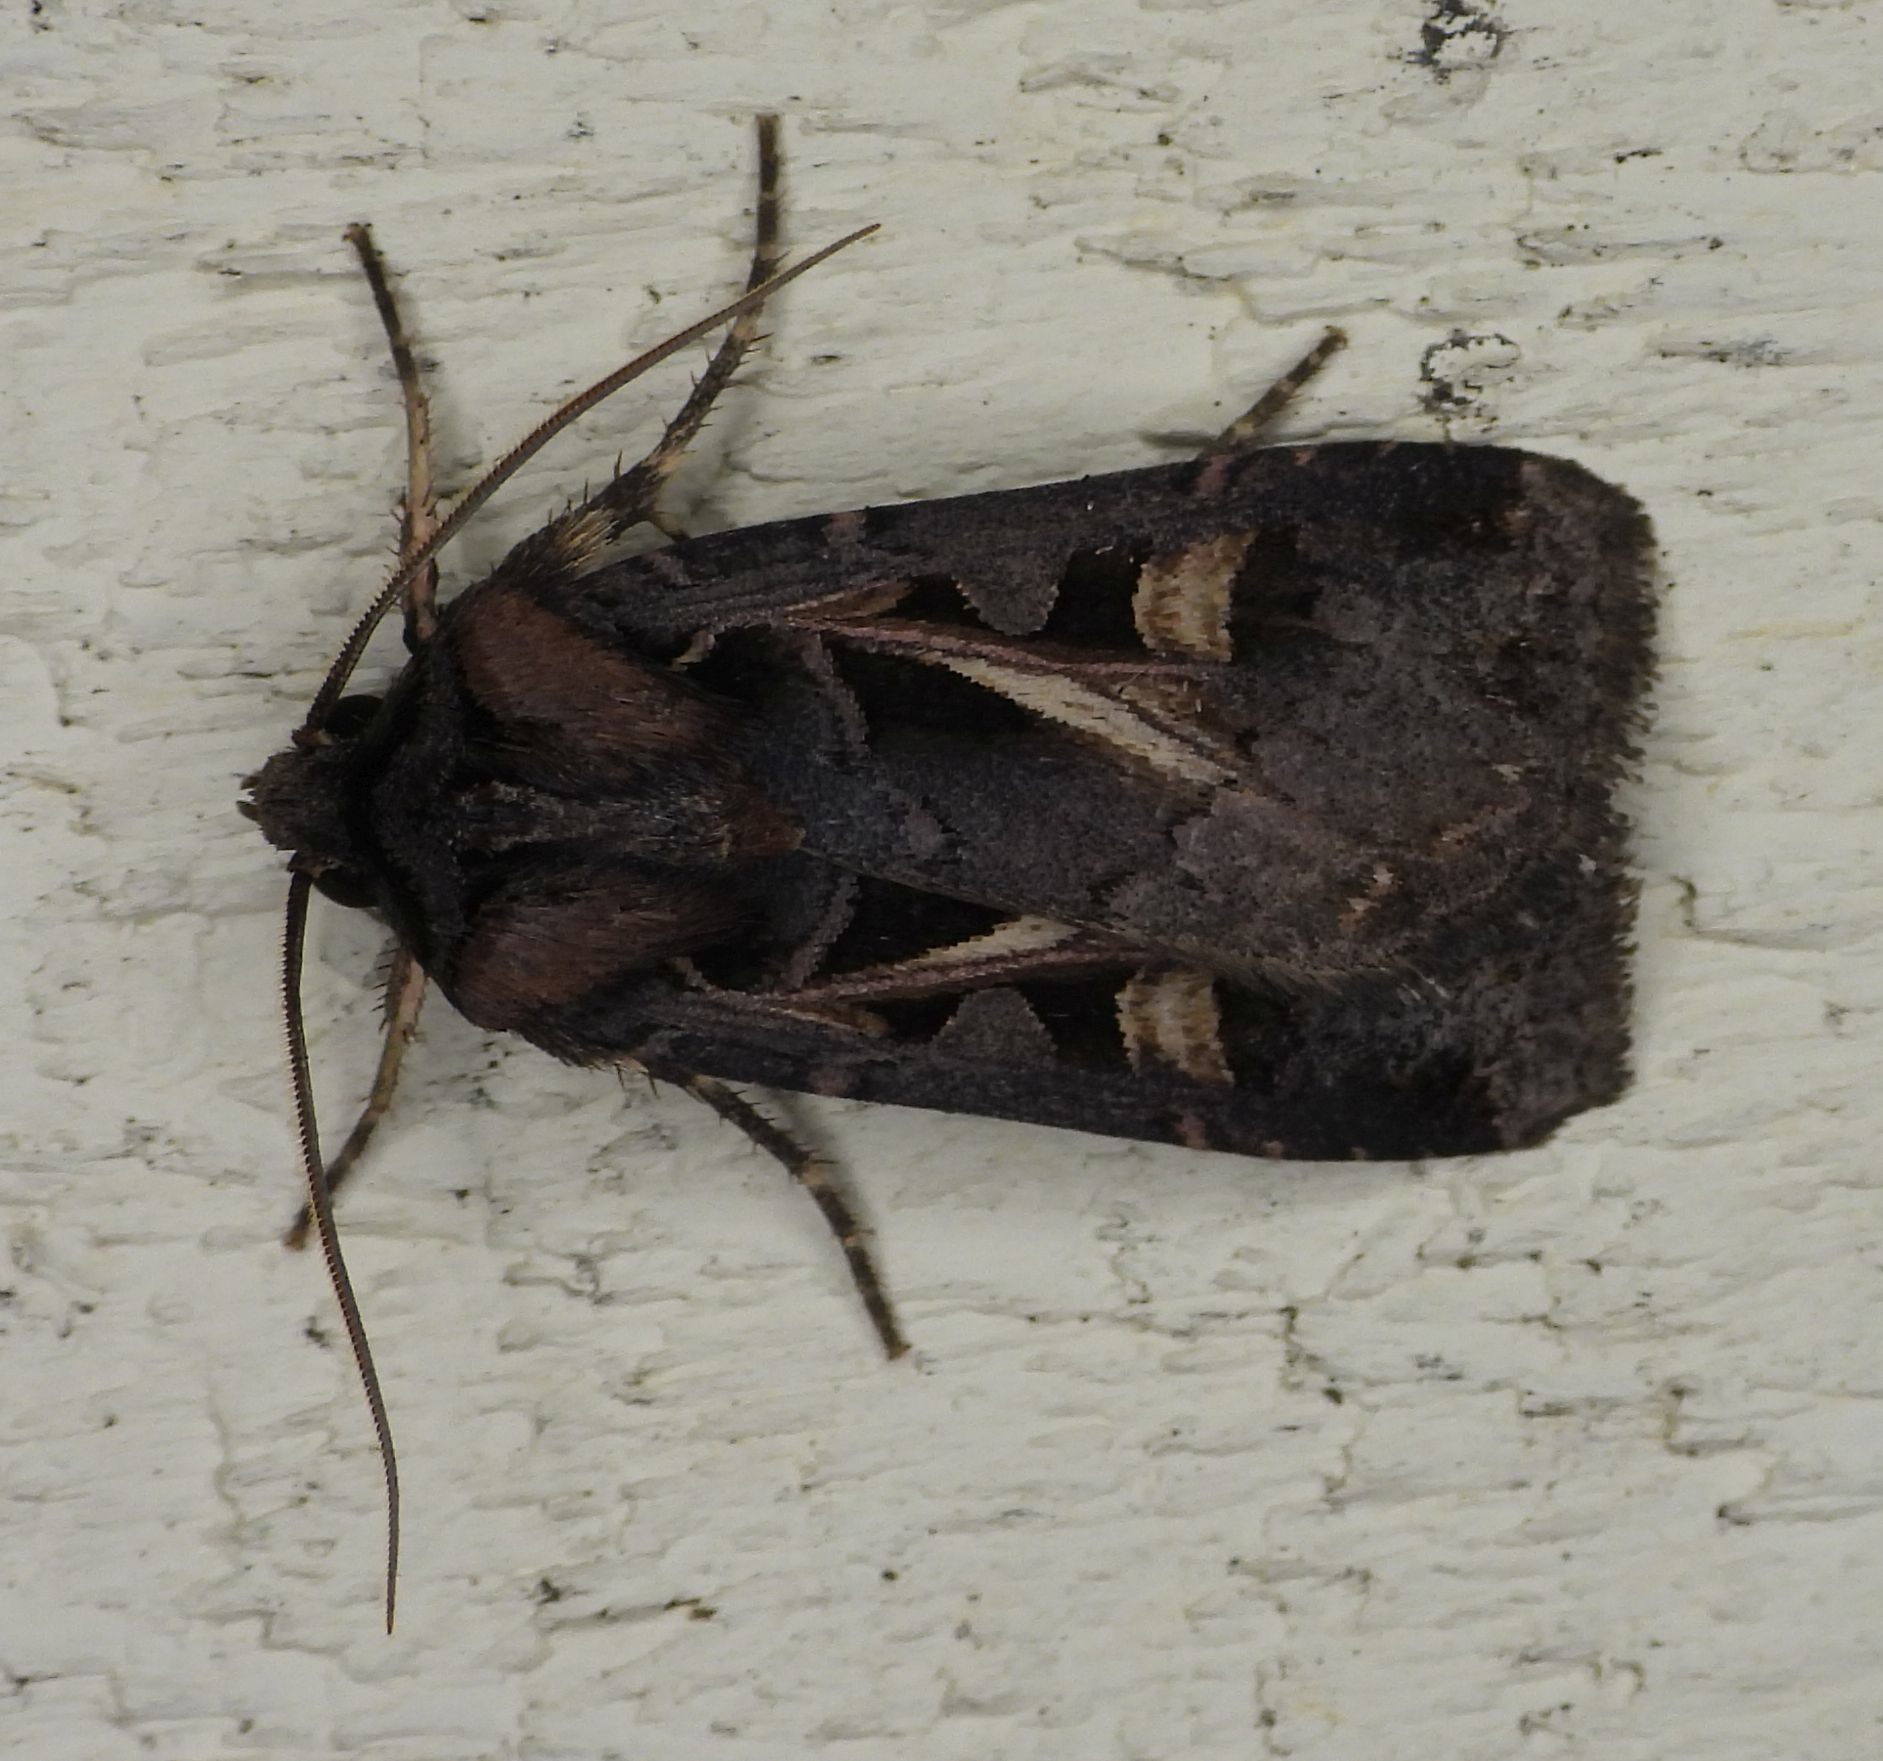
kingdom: Animalia
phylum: Arthropoda
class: Insecta
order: Lepidoptera
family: Noctuidae
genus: Feltia
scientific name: Feltia herilis
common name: Master's dart
